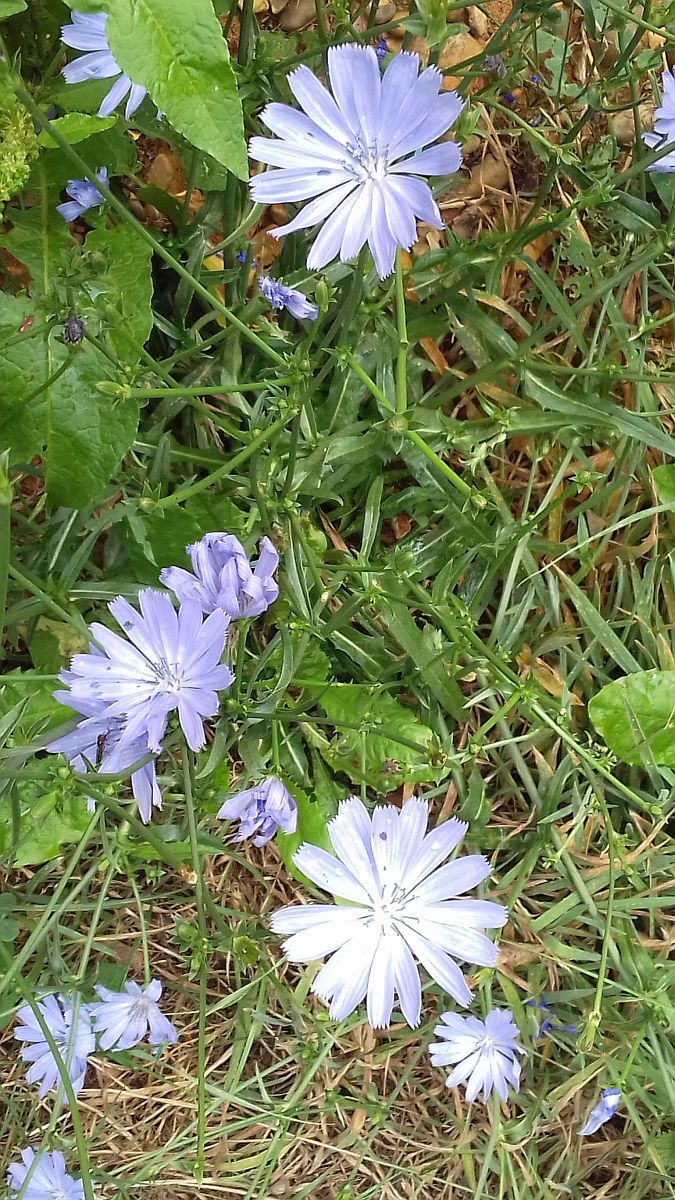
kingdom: Plantae
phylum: Tracheophyta
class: Magnoliopsida
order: Asterales
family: Asteraceae
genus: Cichorium
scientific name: Cichorium intybus
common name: Chicory
